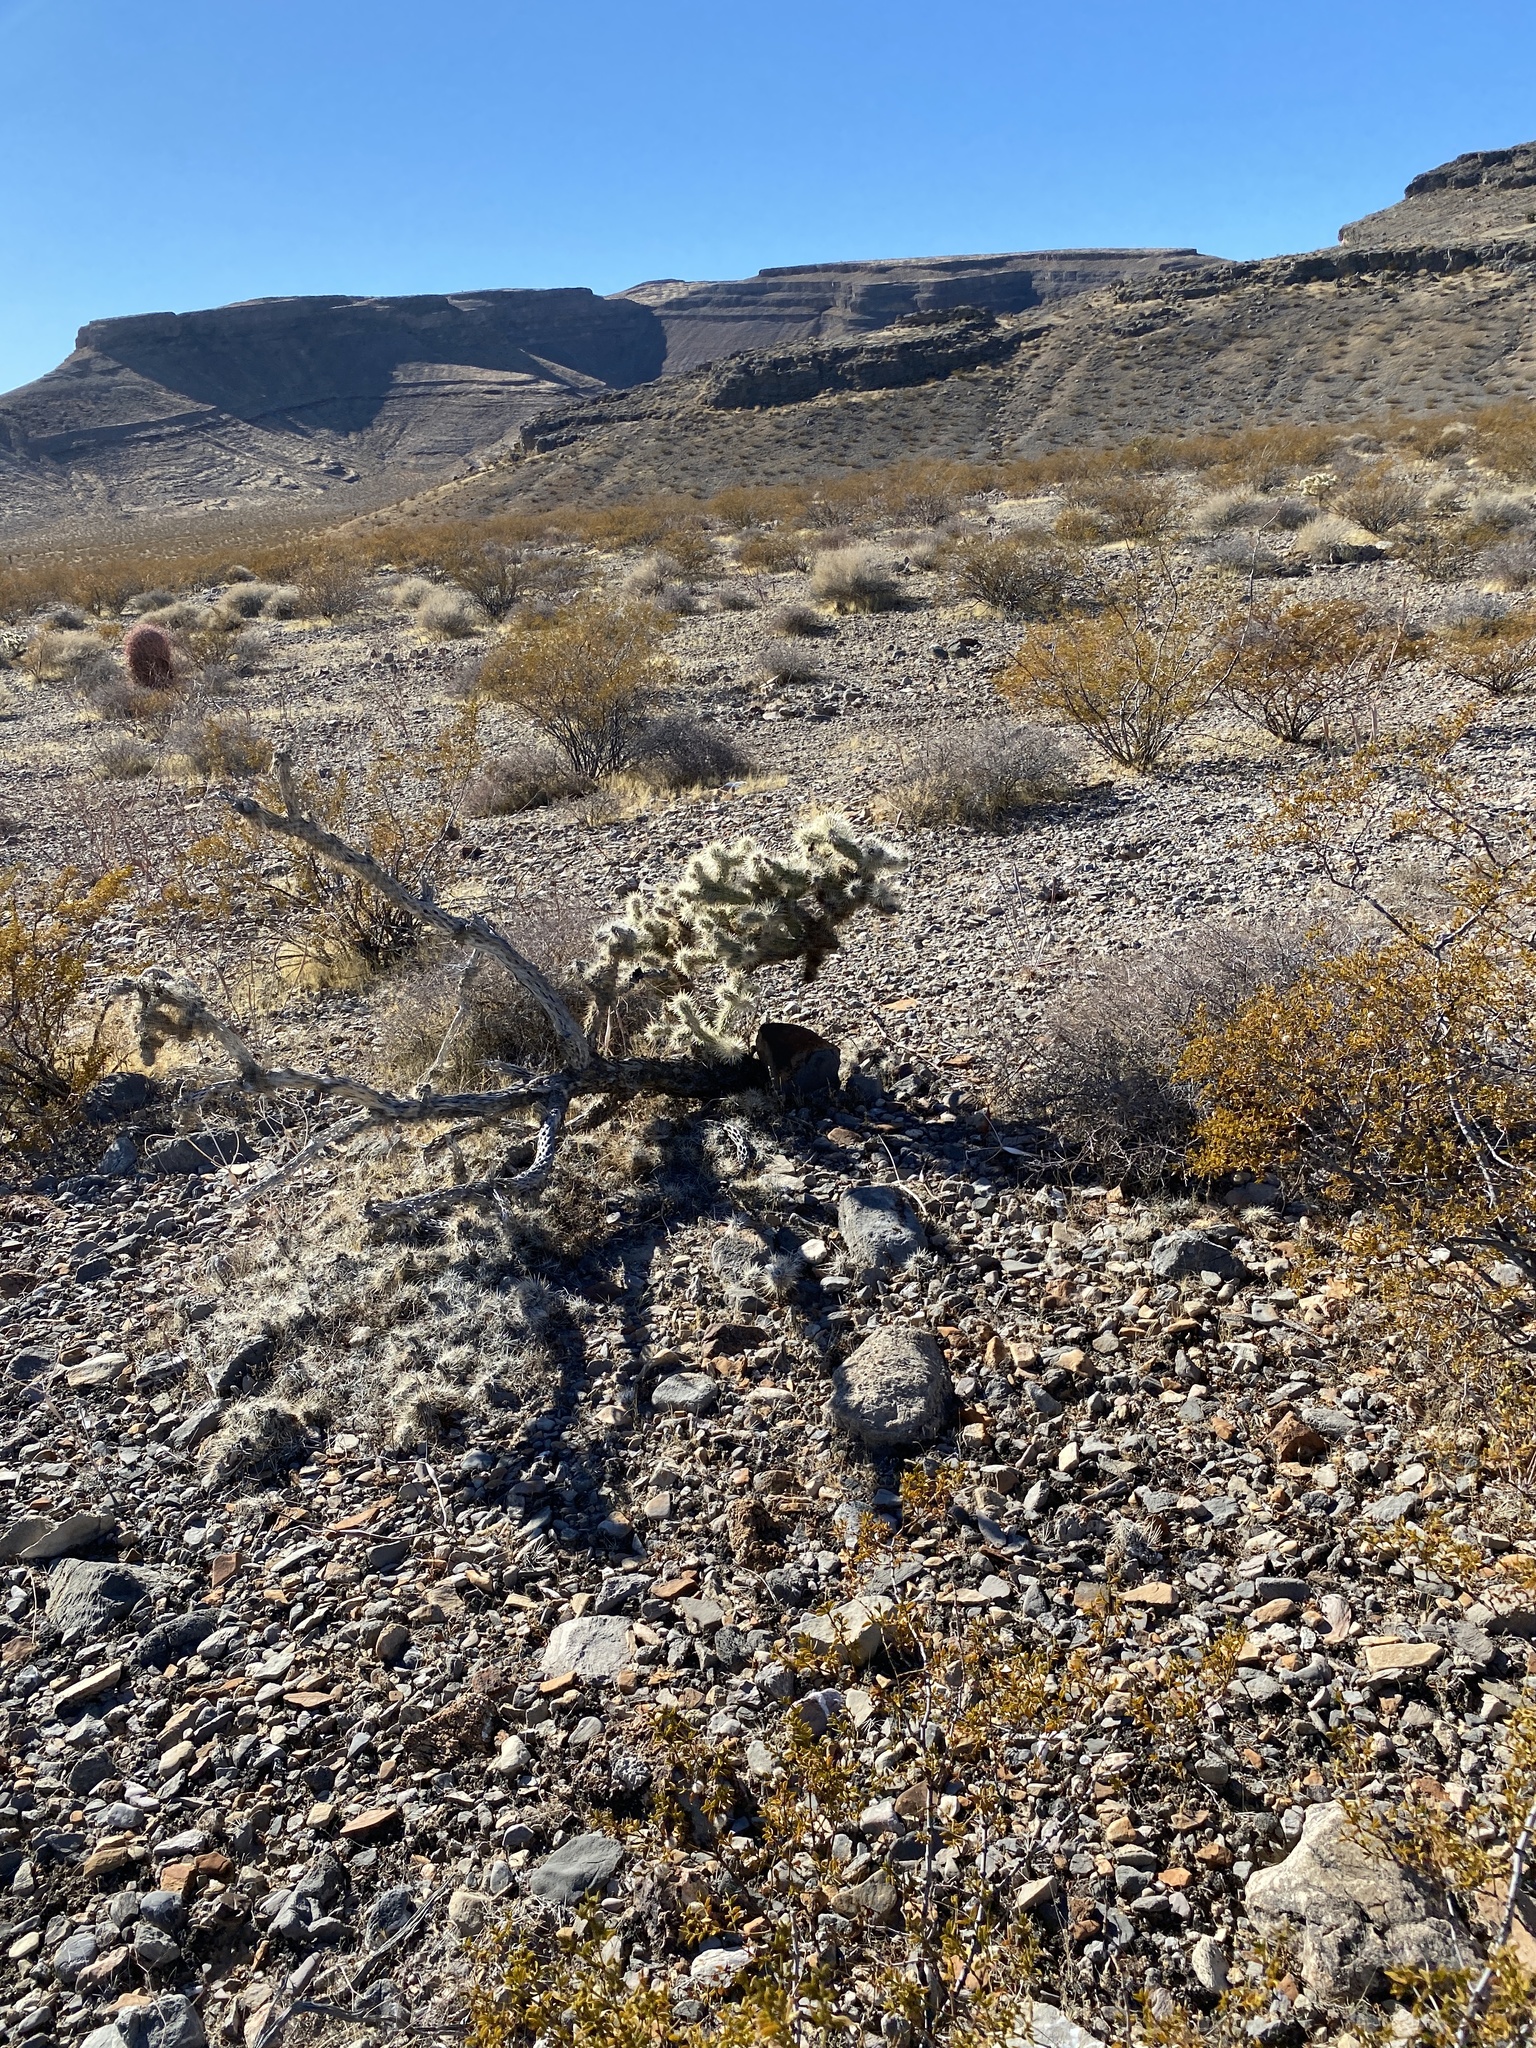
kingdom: Plantae
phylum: Tracheophyta
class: Magnoliopsida
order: Caryophyllales
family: Cactaceae
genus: Cylindropuntia
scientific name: Cylindropuntia echinocarpa
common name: Ground cholla
